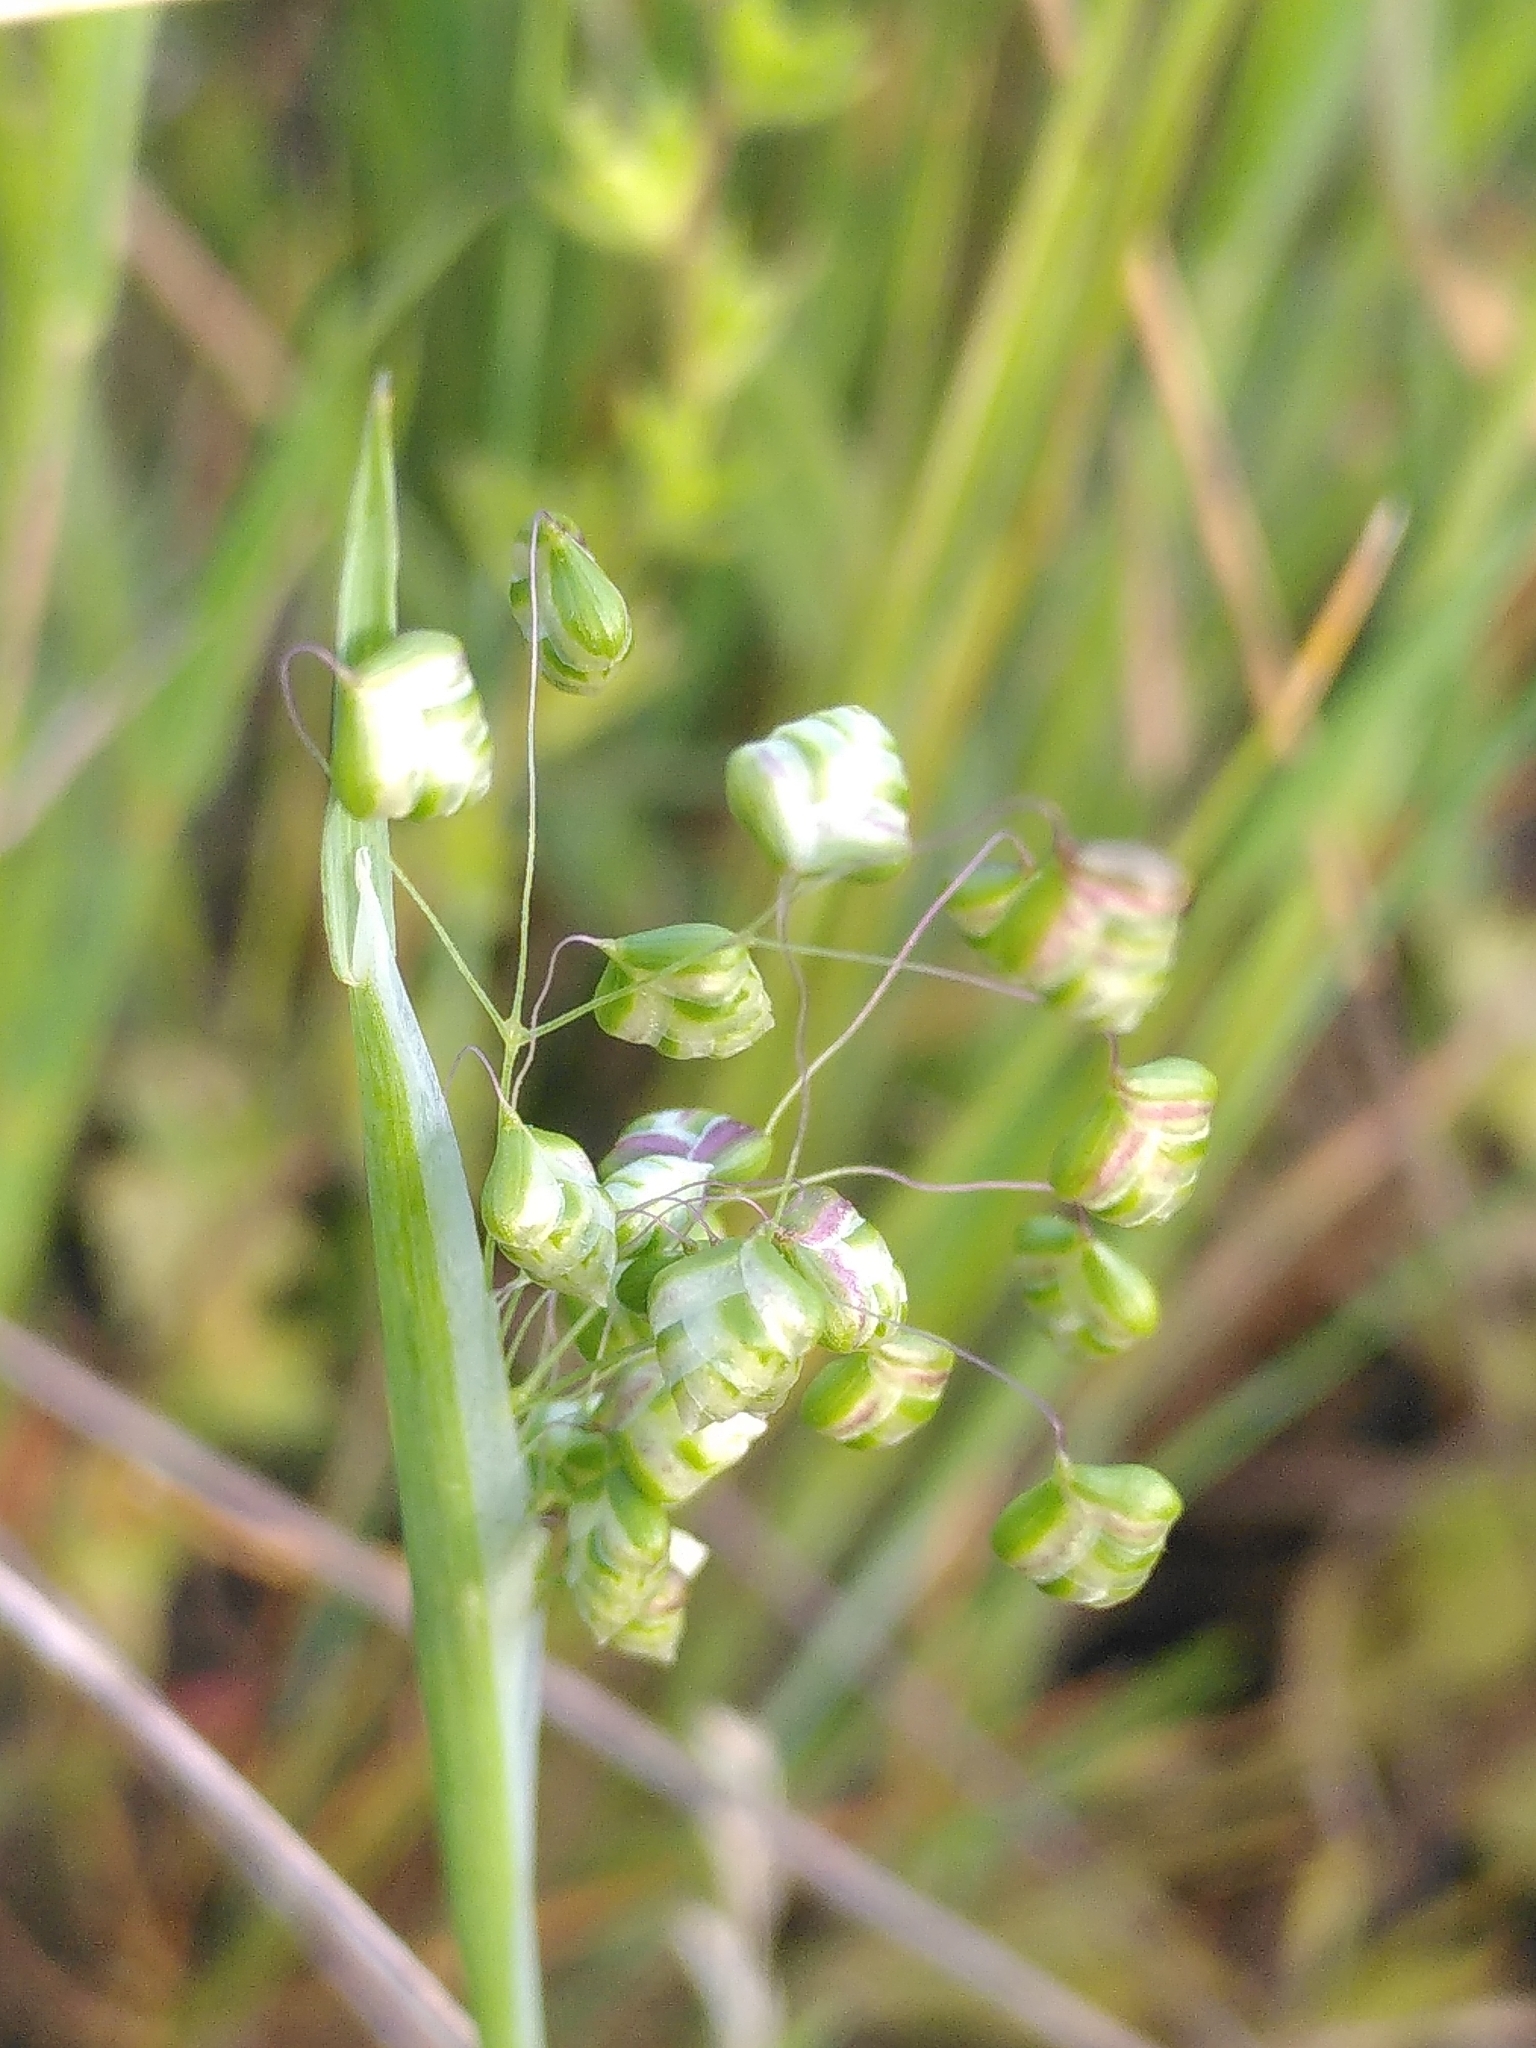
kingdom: Plantae
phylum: Tracheophyta
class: Liliopsida
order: Poales
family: Poaceae
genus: Briza
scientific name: Briza minor
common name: Lesser quaking-grass
